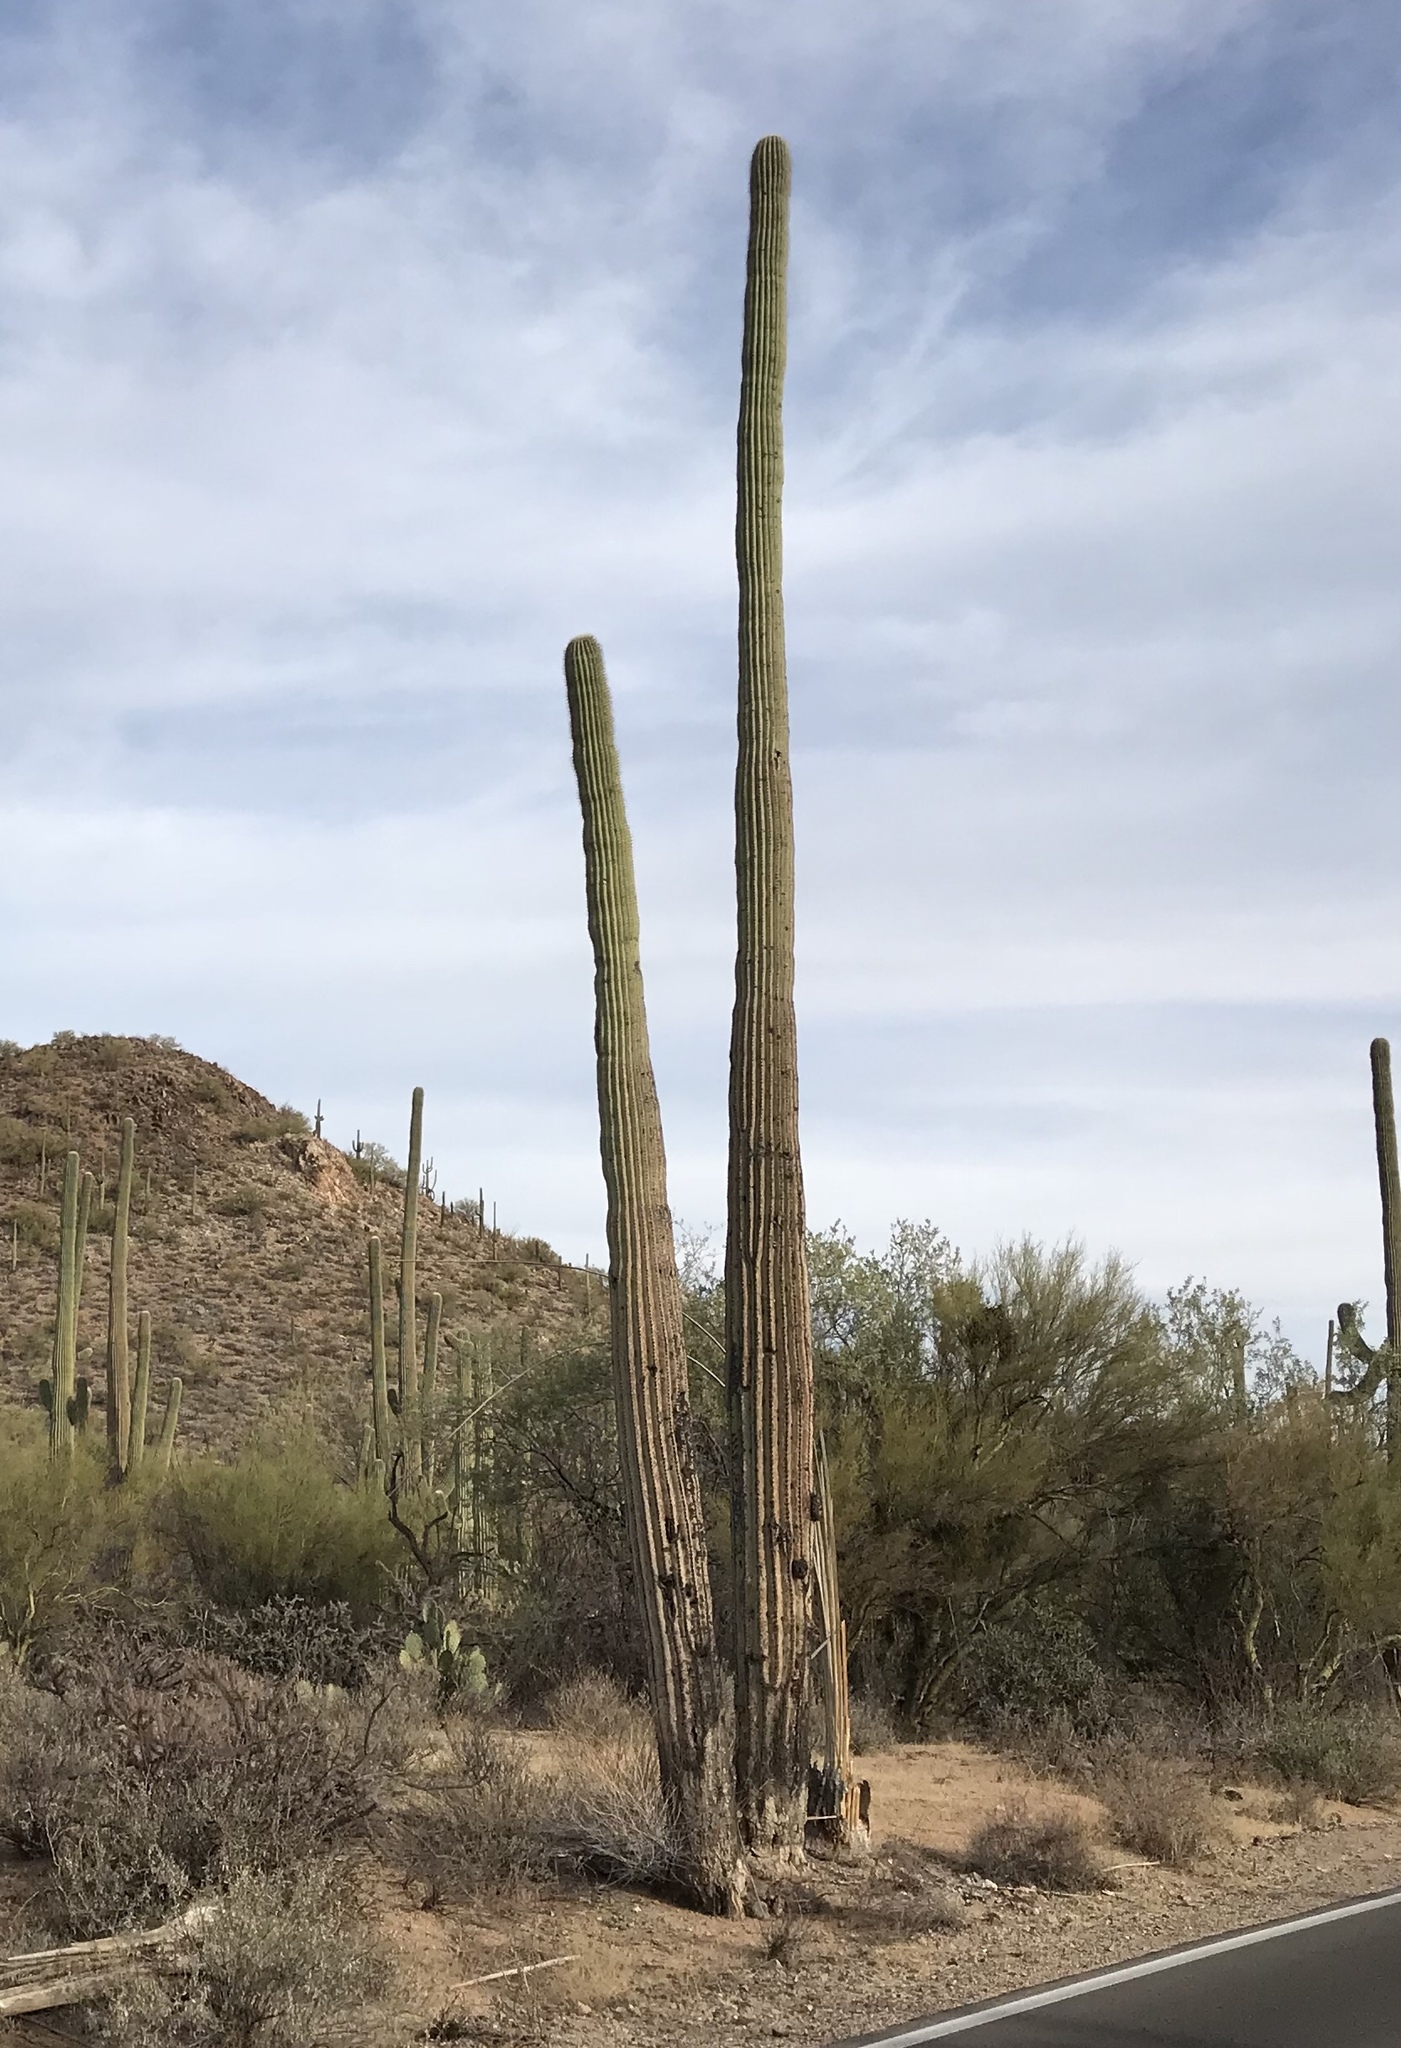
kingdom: Plantae
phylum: Tracheophyta
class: Magnoliopsida
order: Caryophyllales
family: Cactaceae
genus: Carnegiea
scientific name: Carnegiea gigantea
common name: Saguaro
